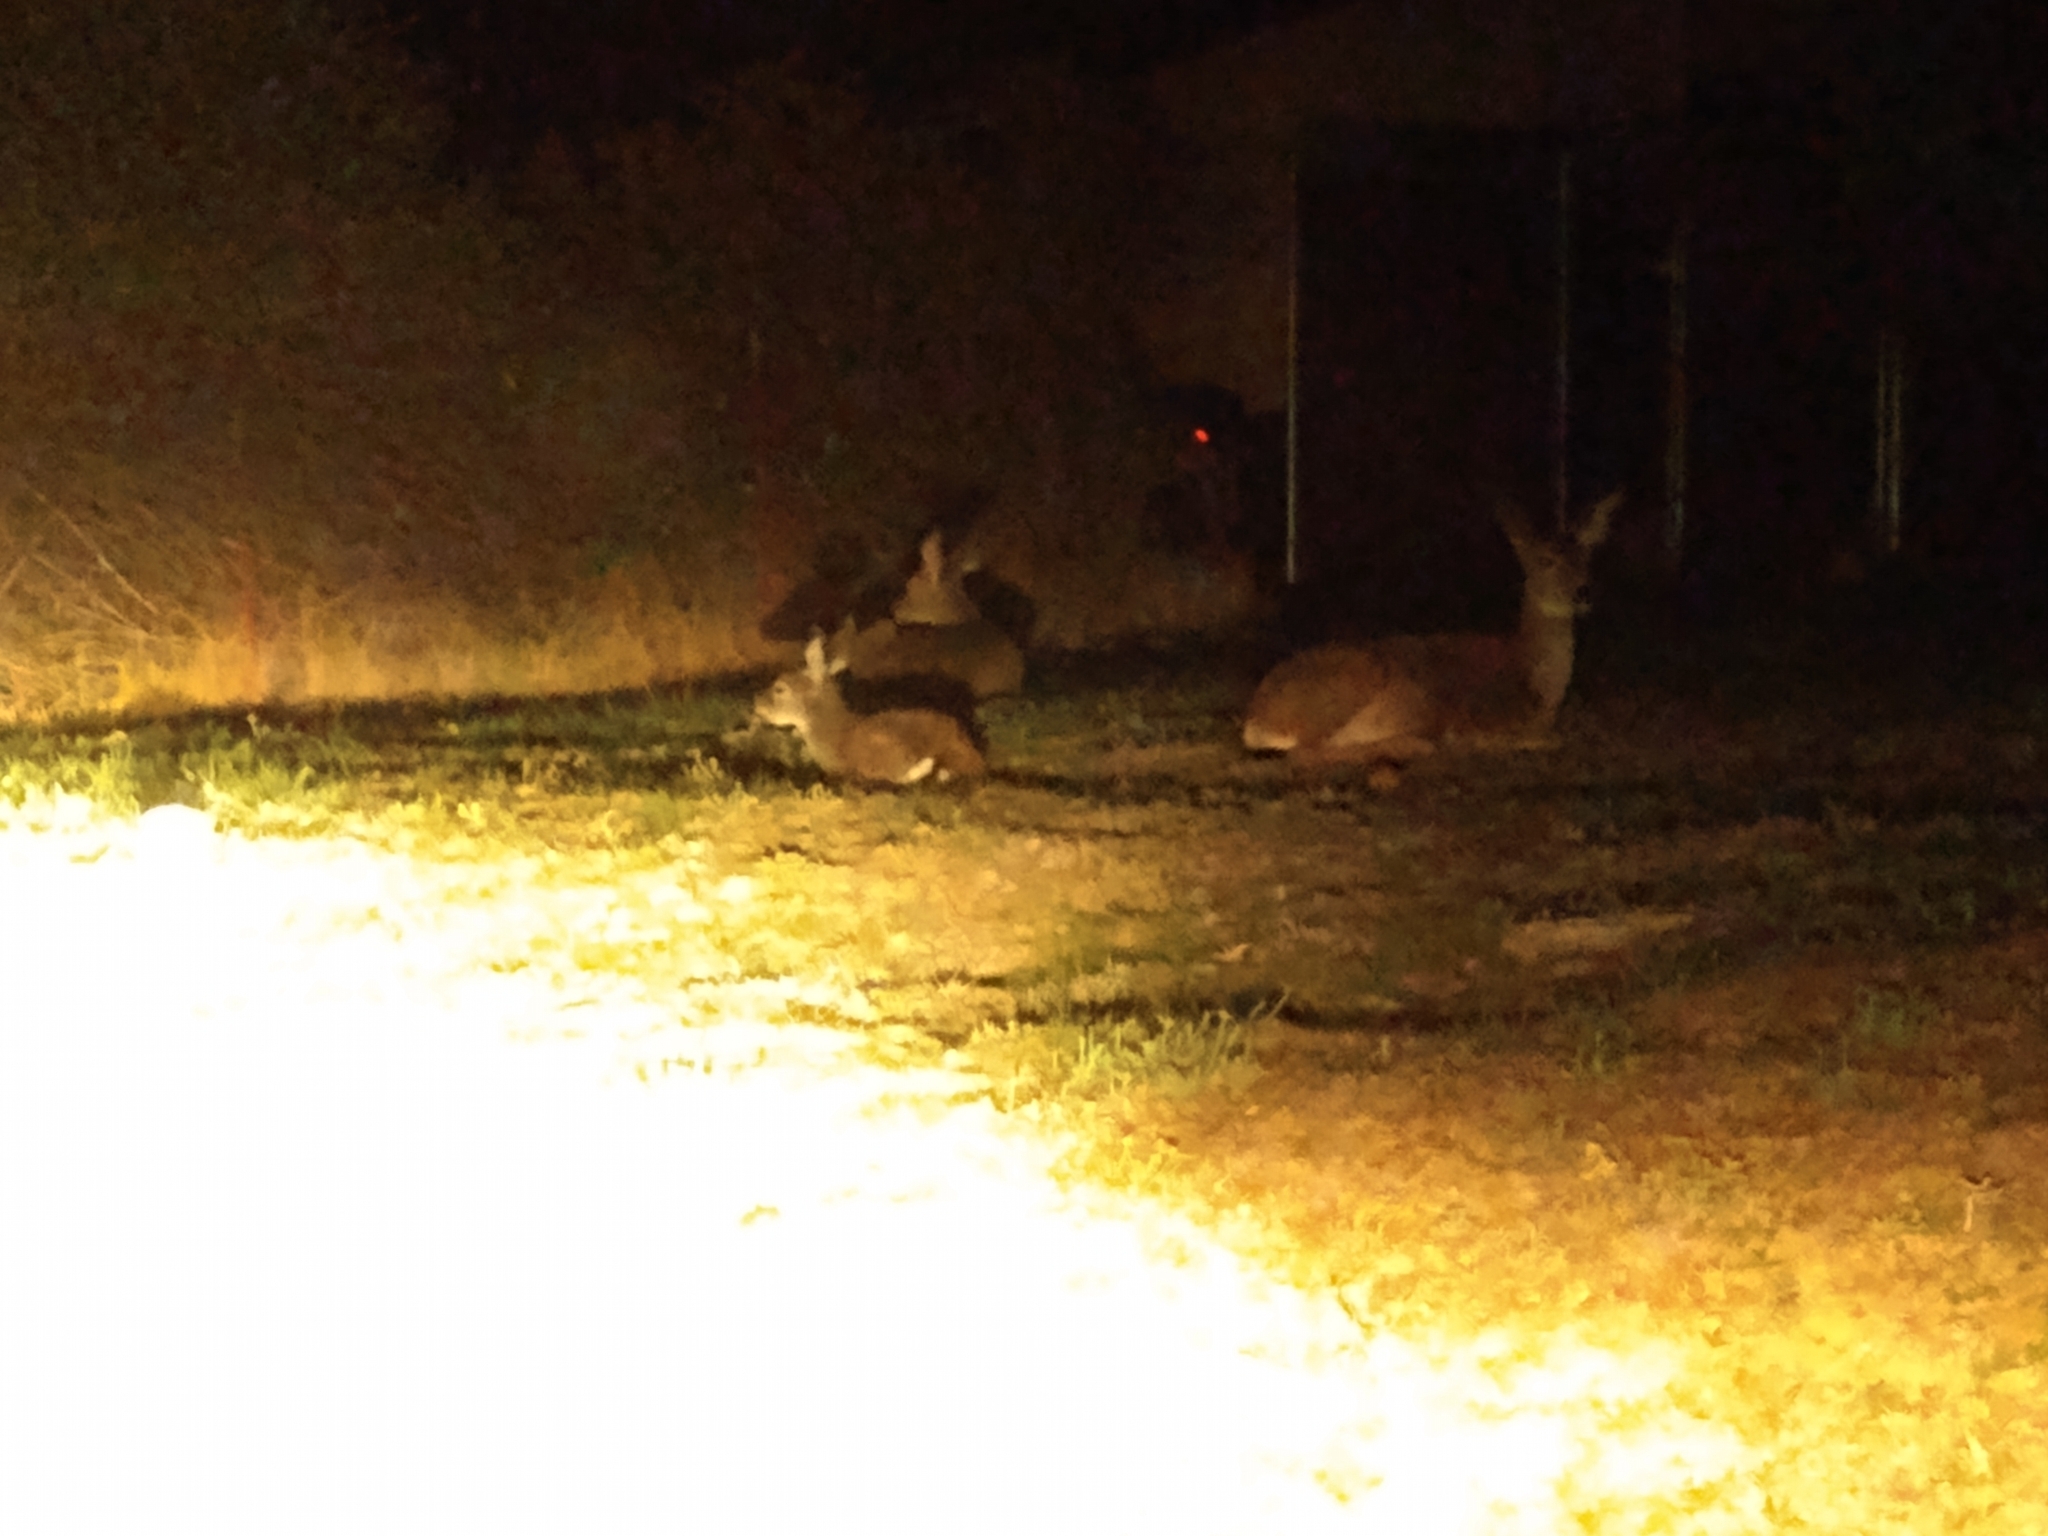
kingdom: Animalia
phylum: Chordata
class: Mammalia
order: Artiodactyla
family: Cervidae
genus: Odocoileus
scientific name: Odocoileus hemionus
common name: Mule deer
